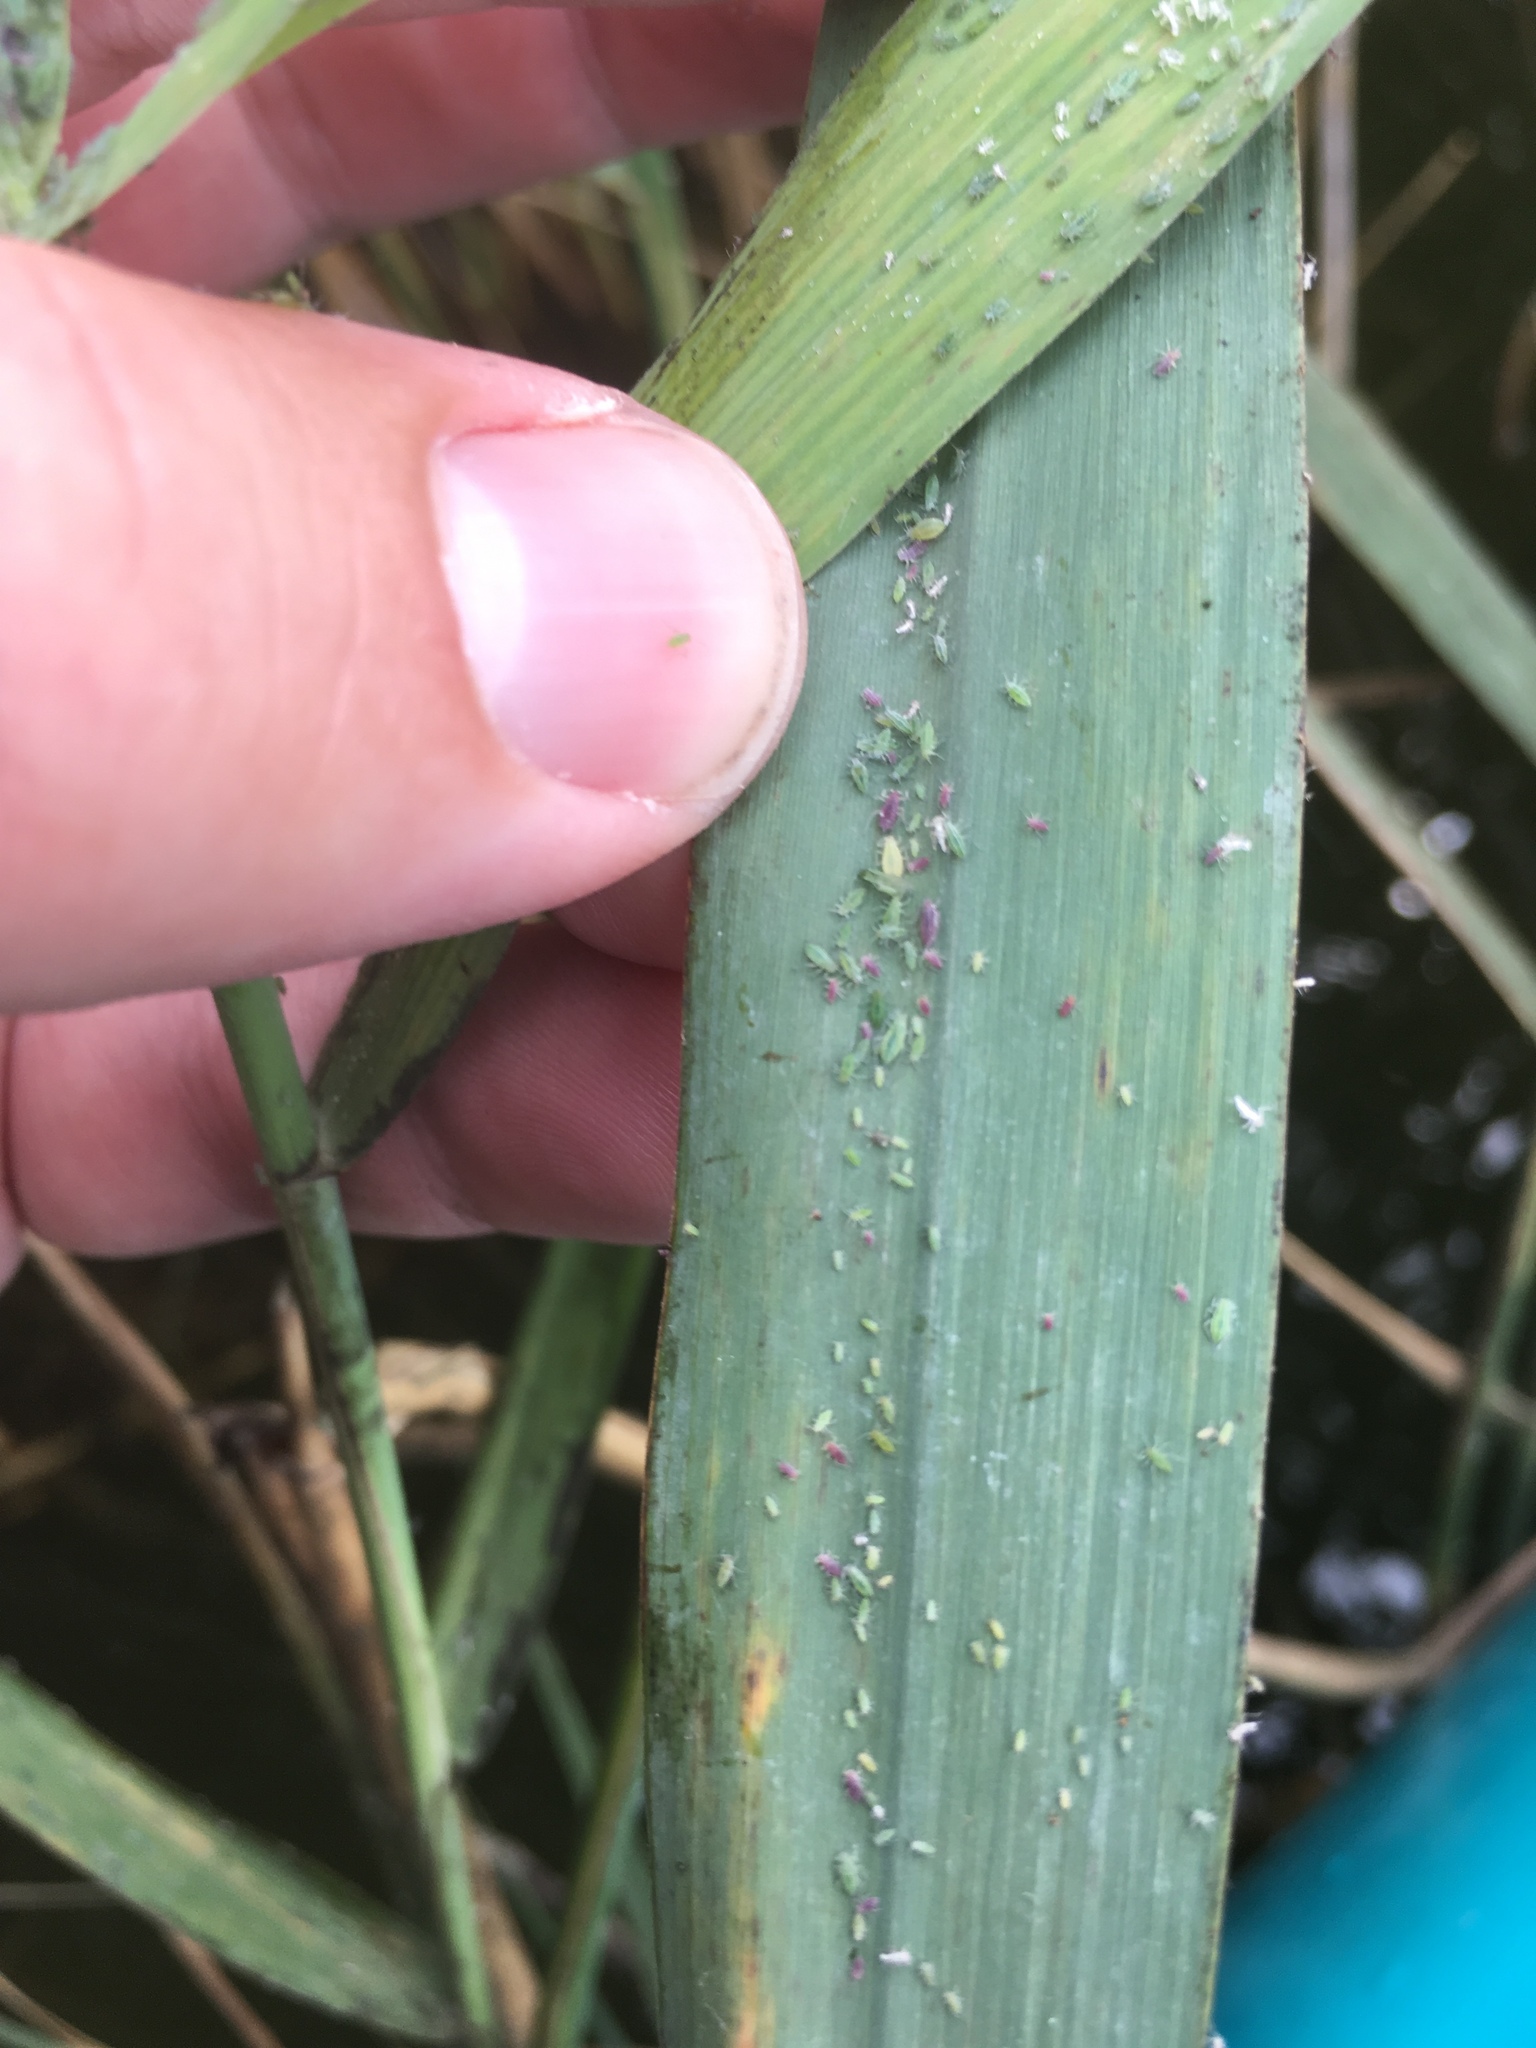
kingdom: Animalia
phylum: Arthropoda
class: Insecta
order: Hemiptera
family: Aphididae
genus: Hyalopterus
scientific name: Hyalopterus
